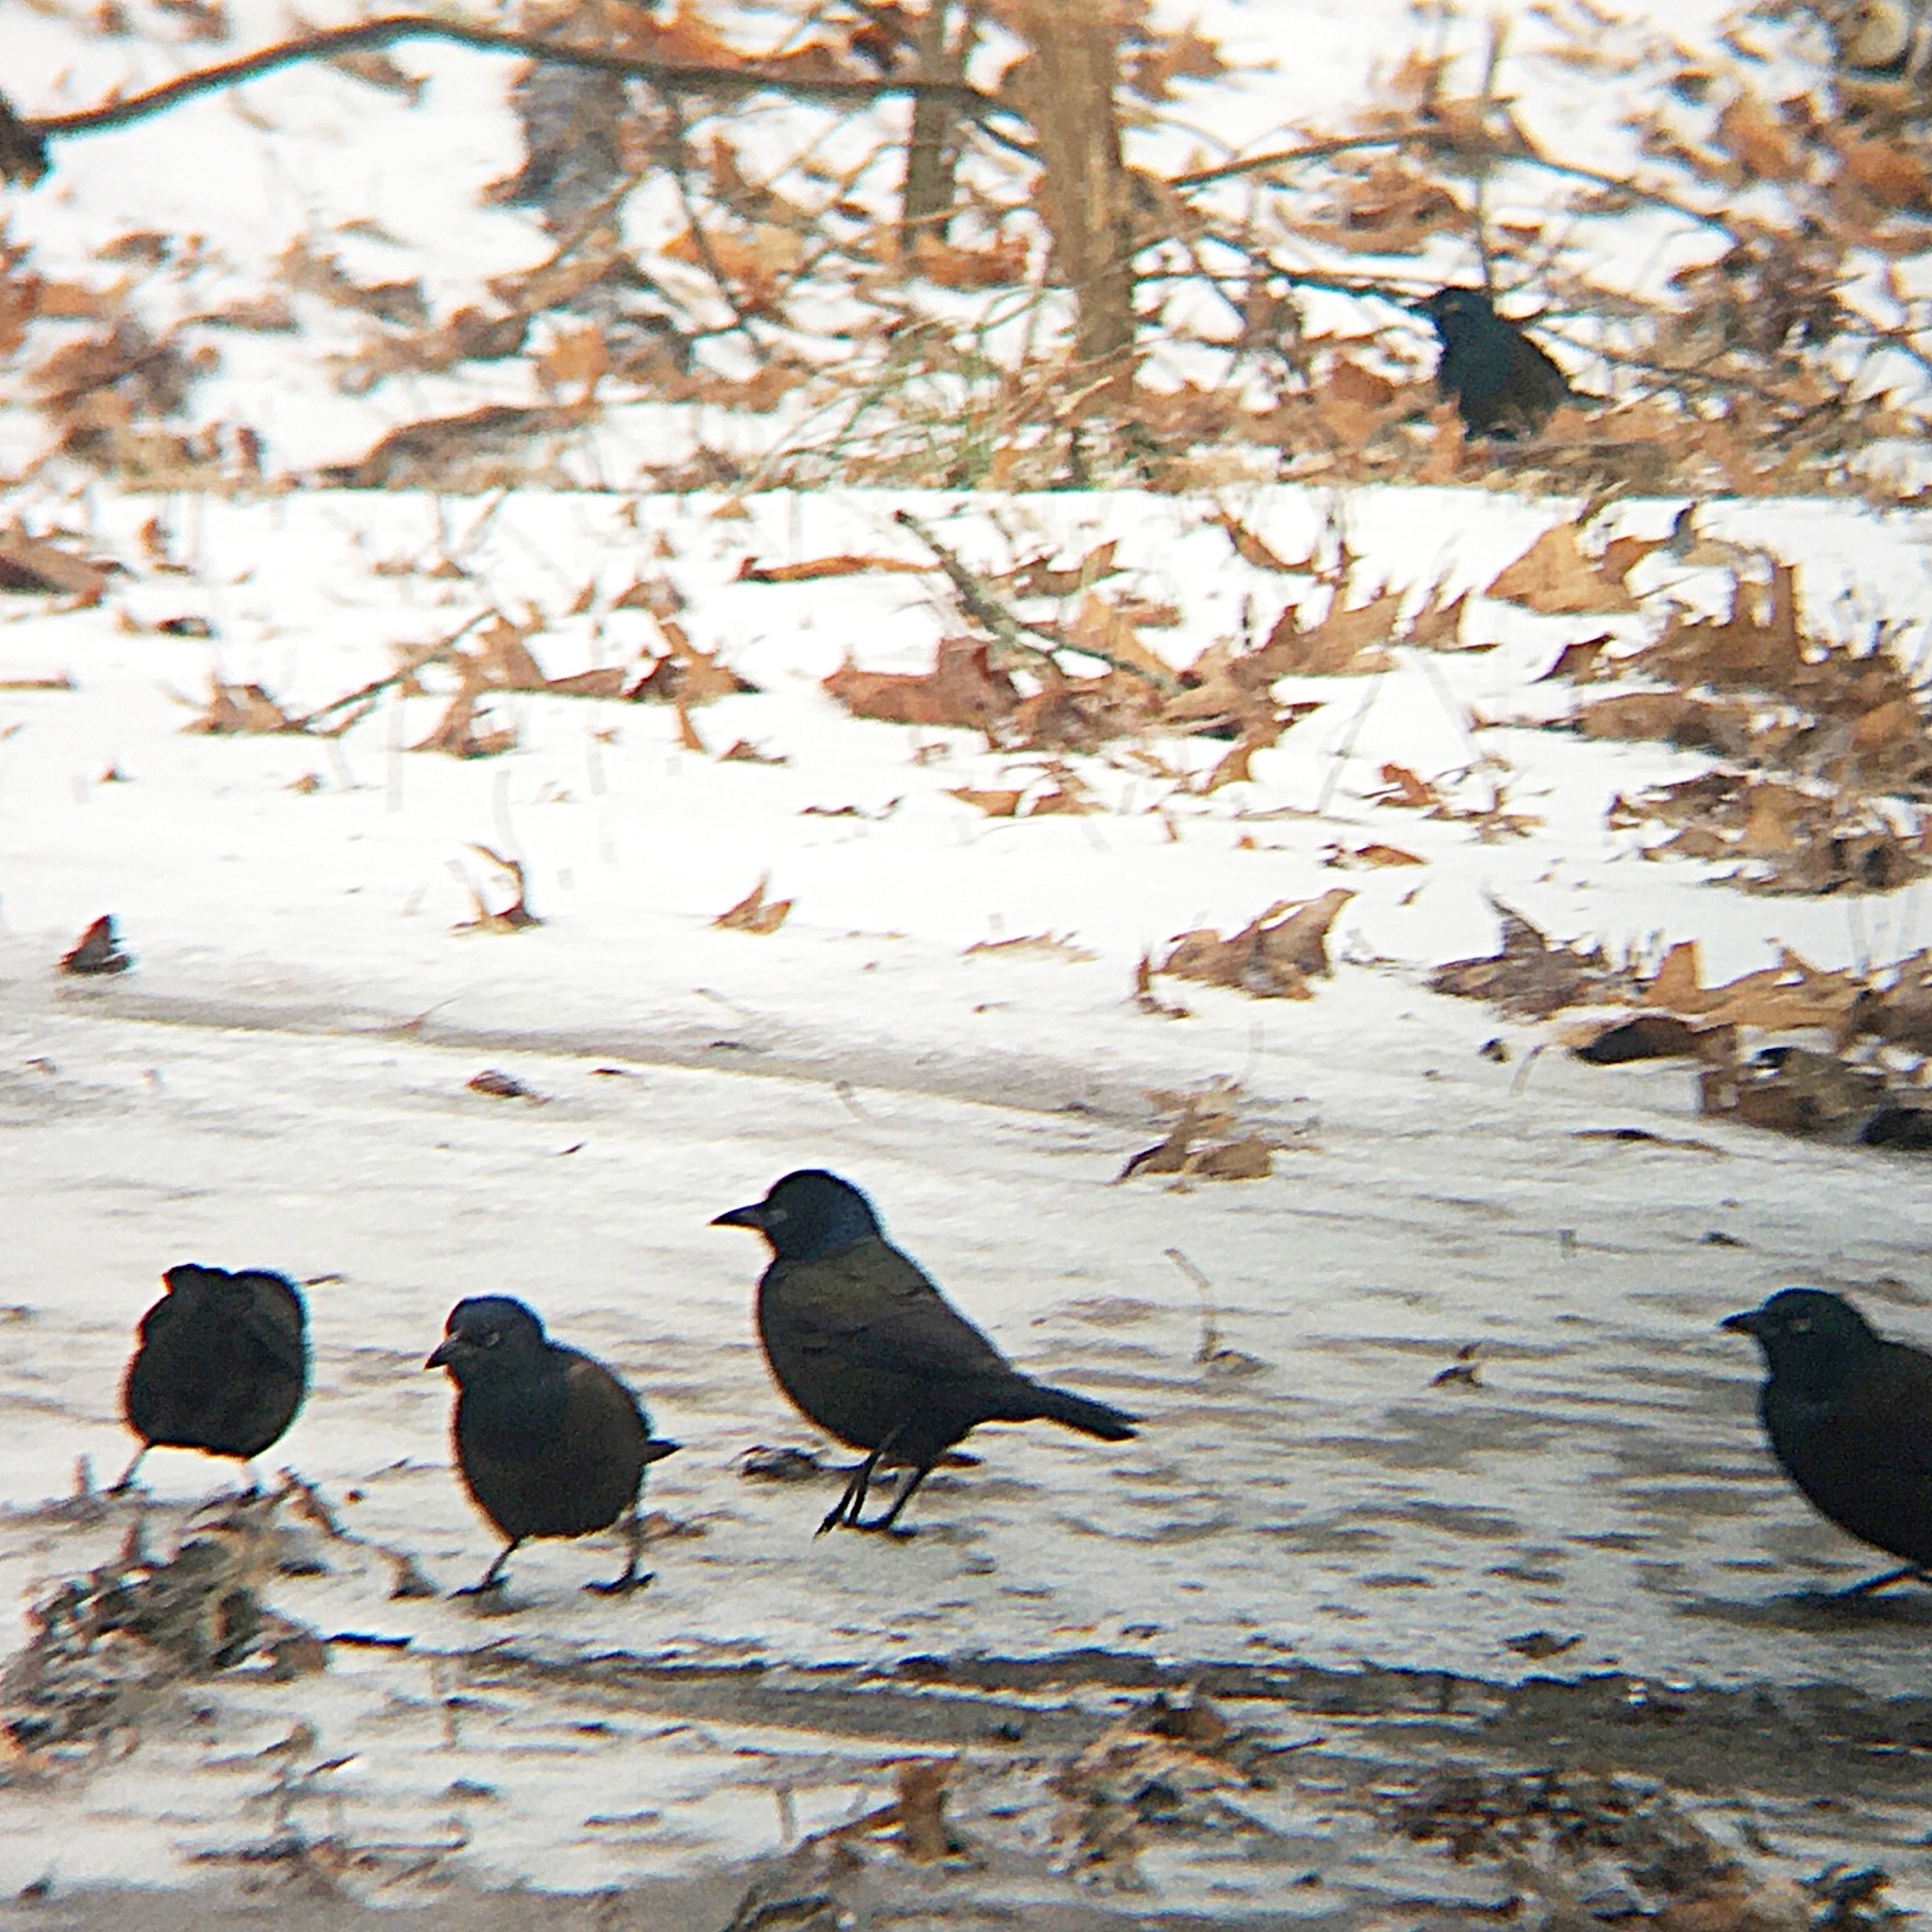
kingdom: Animalia
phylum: Chordata
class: Aves
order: Passeriformes
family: Icteridae
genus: Quiscalus
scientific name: Quiscalus quiscula
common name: Common grackle
